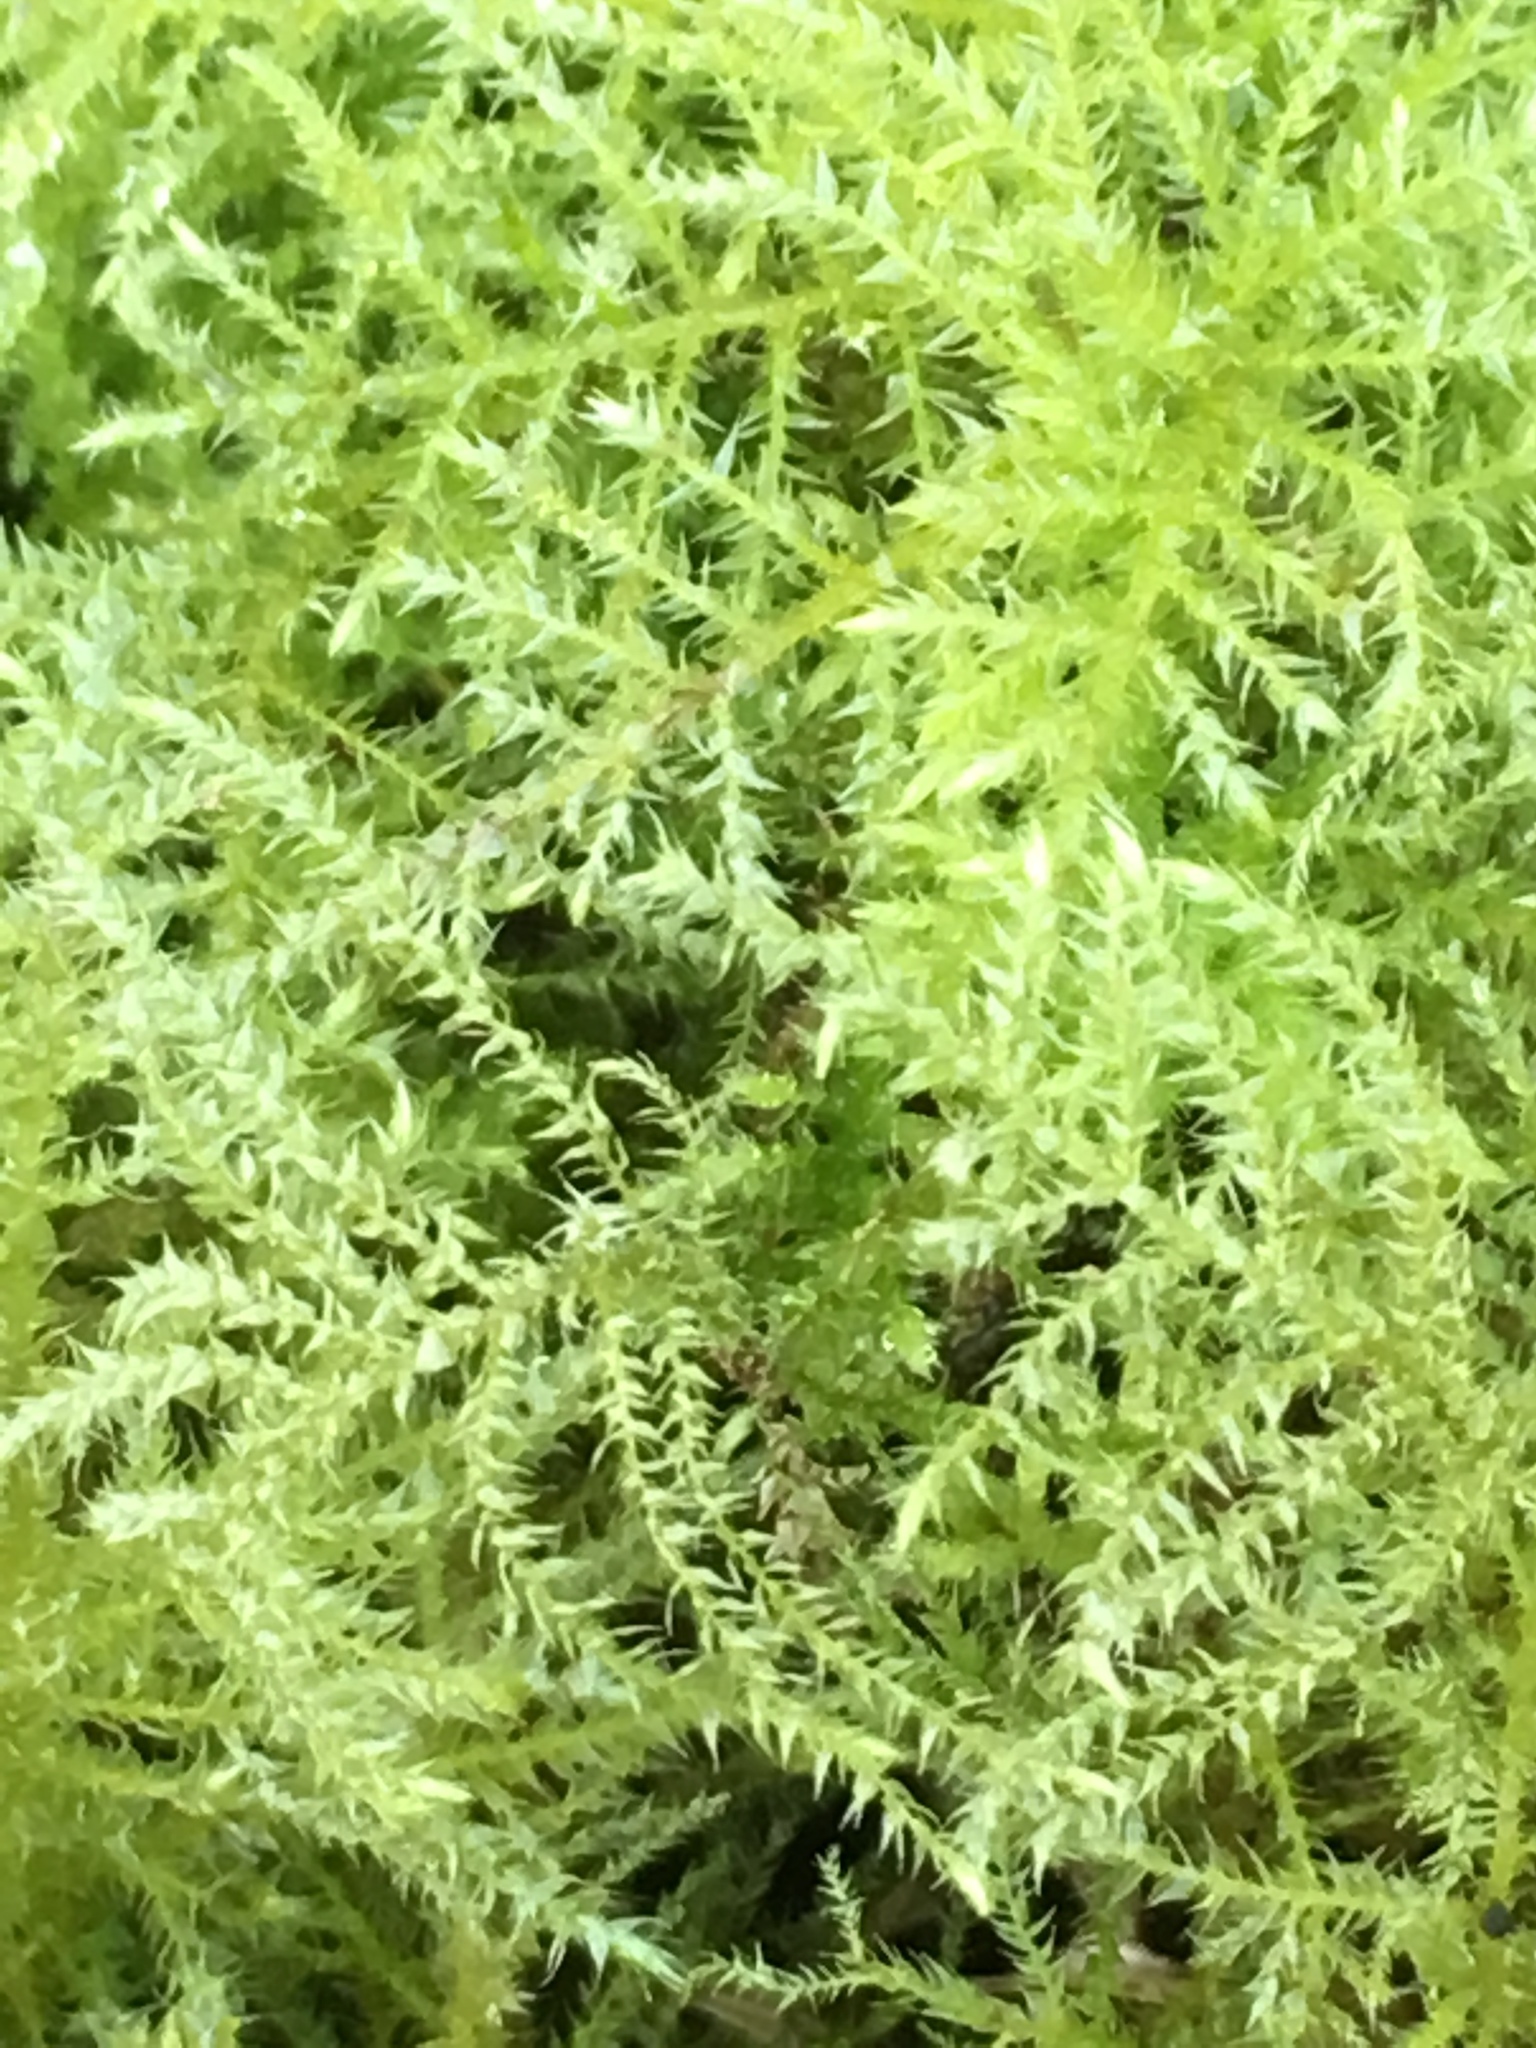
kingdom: Plantae
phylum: Bryophyta
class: Bryopsida
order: Hypnales
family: Brachytheciaceae
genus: Kindbergia
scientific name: Kindbergia praelonga
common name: Slender beaked moss
